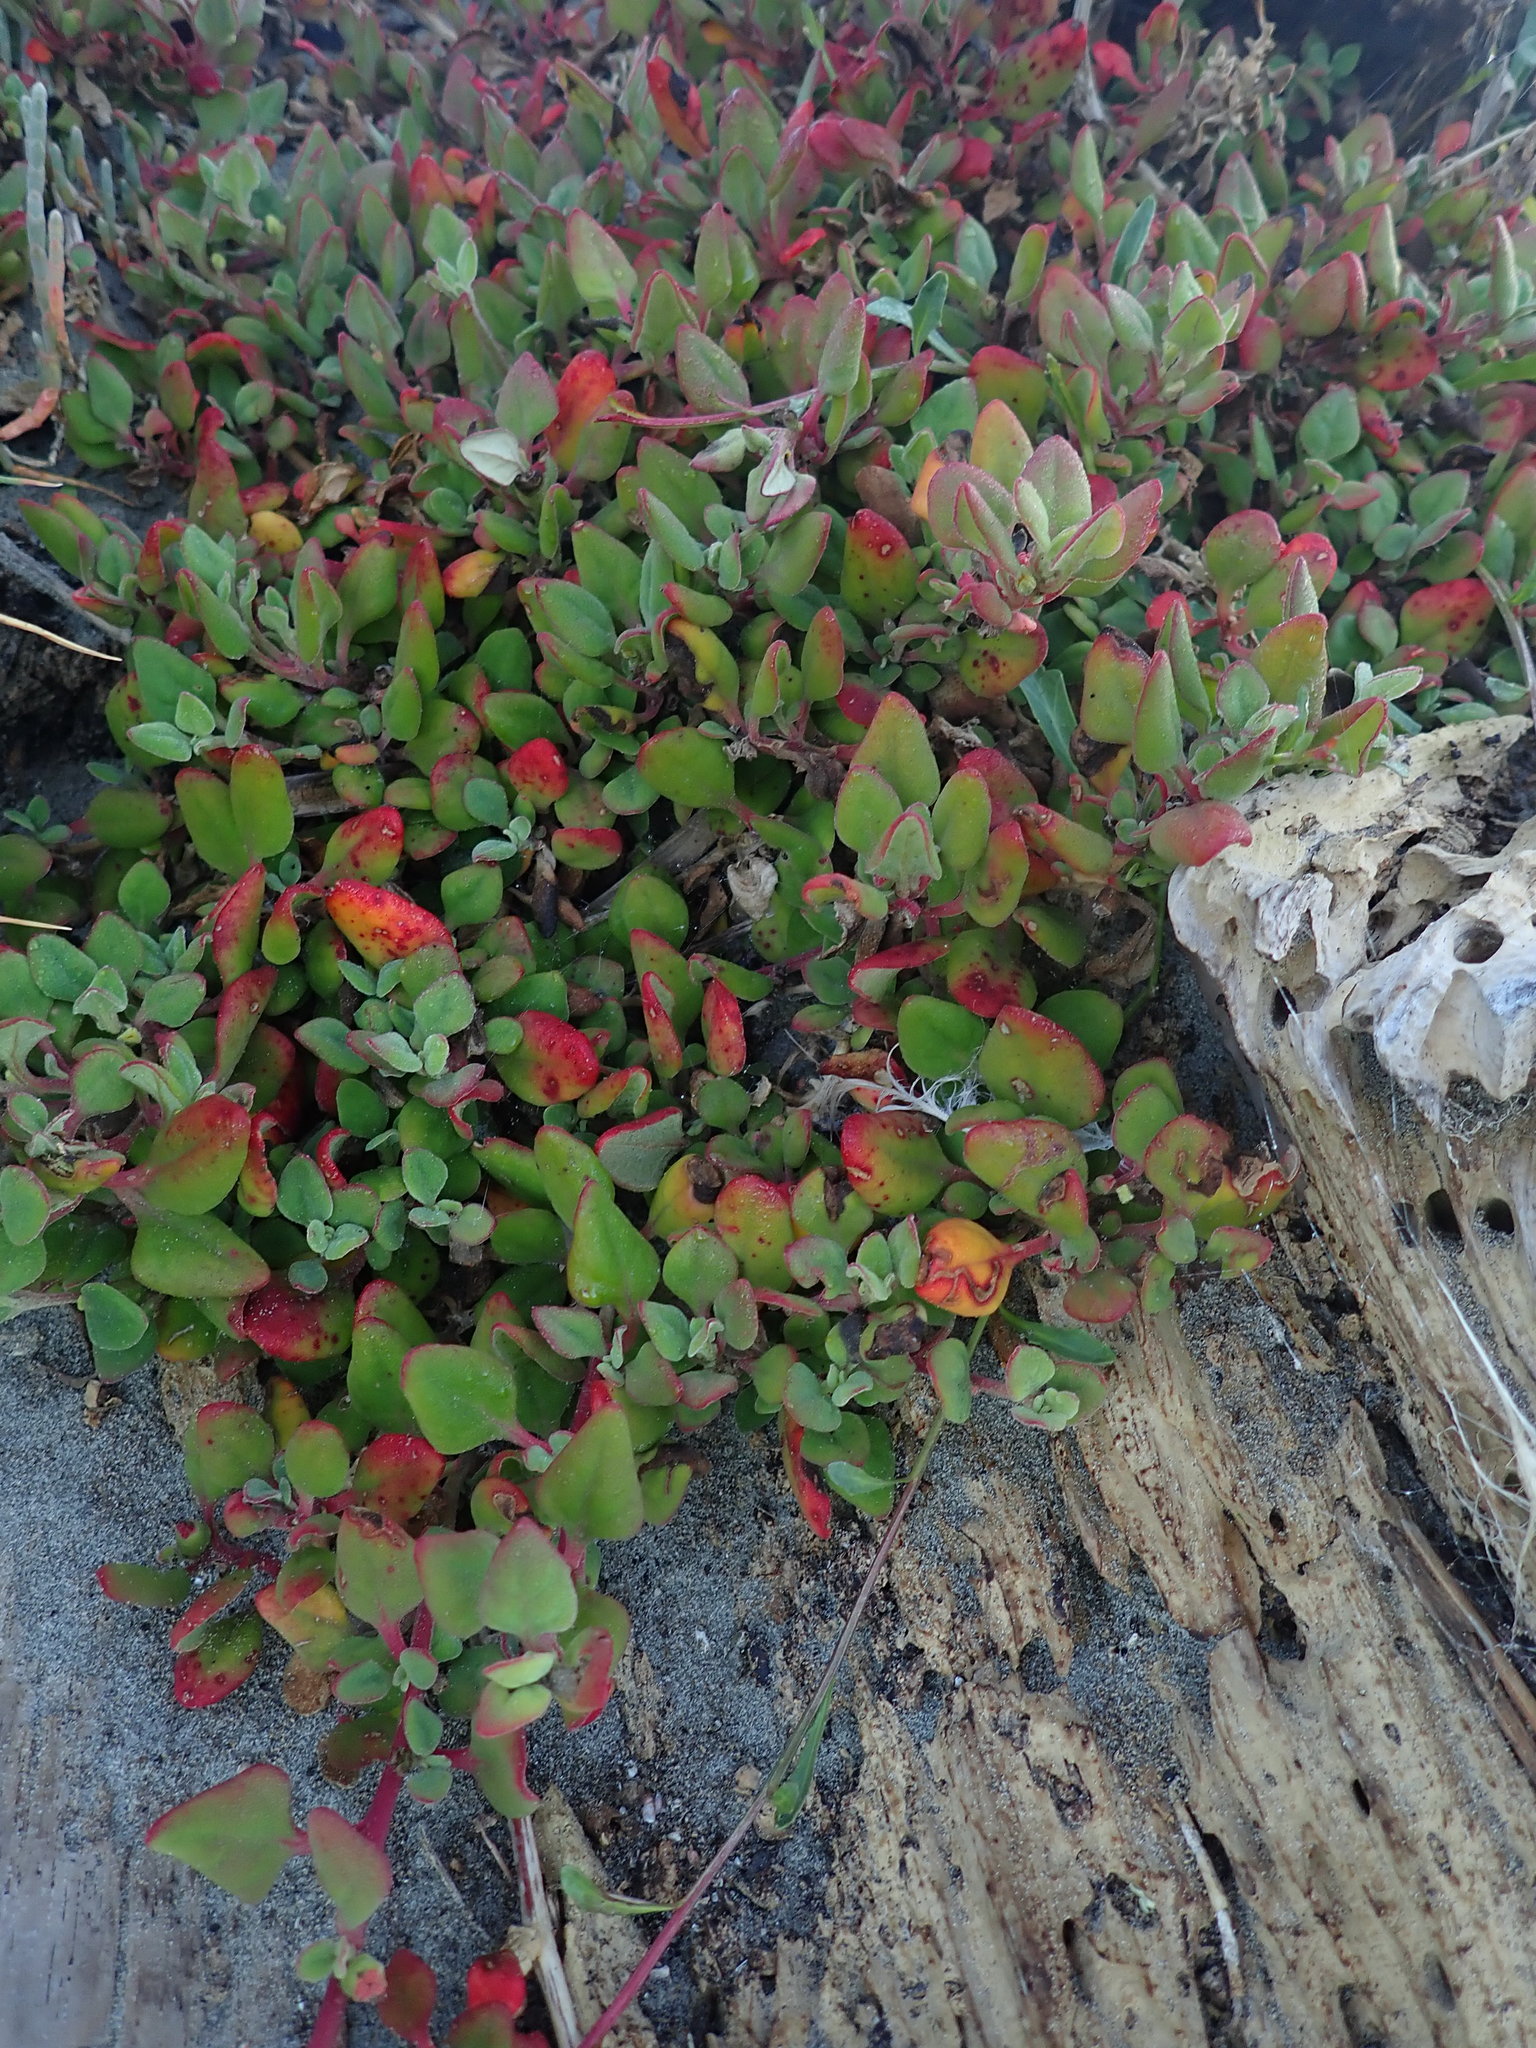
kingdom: Plantae
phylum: Tracheophyta
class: Magnoliopsida
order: Caryophyllales
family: Aizoaceae
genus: Tetragonia
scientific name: Tetragonia implexicoma
